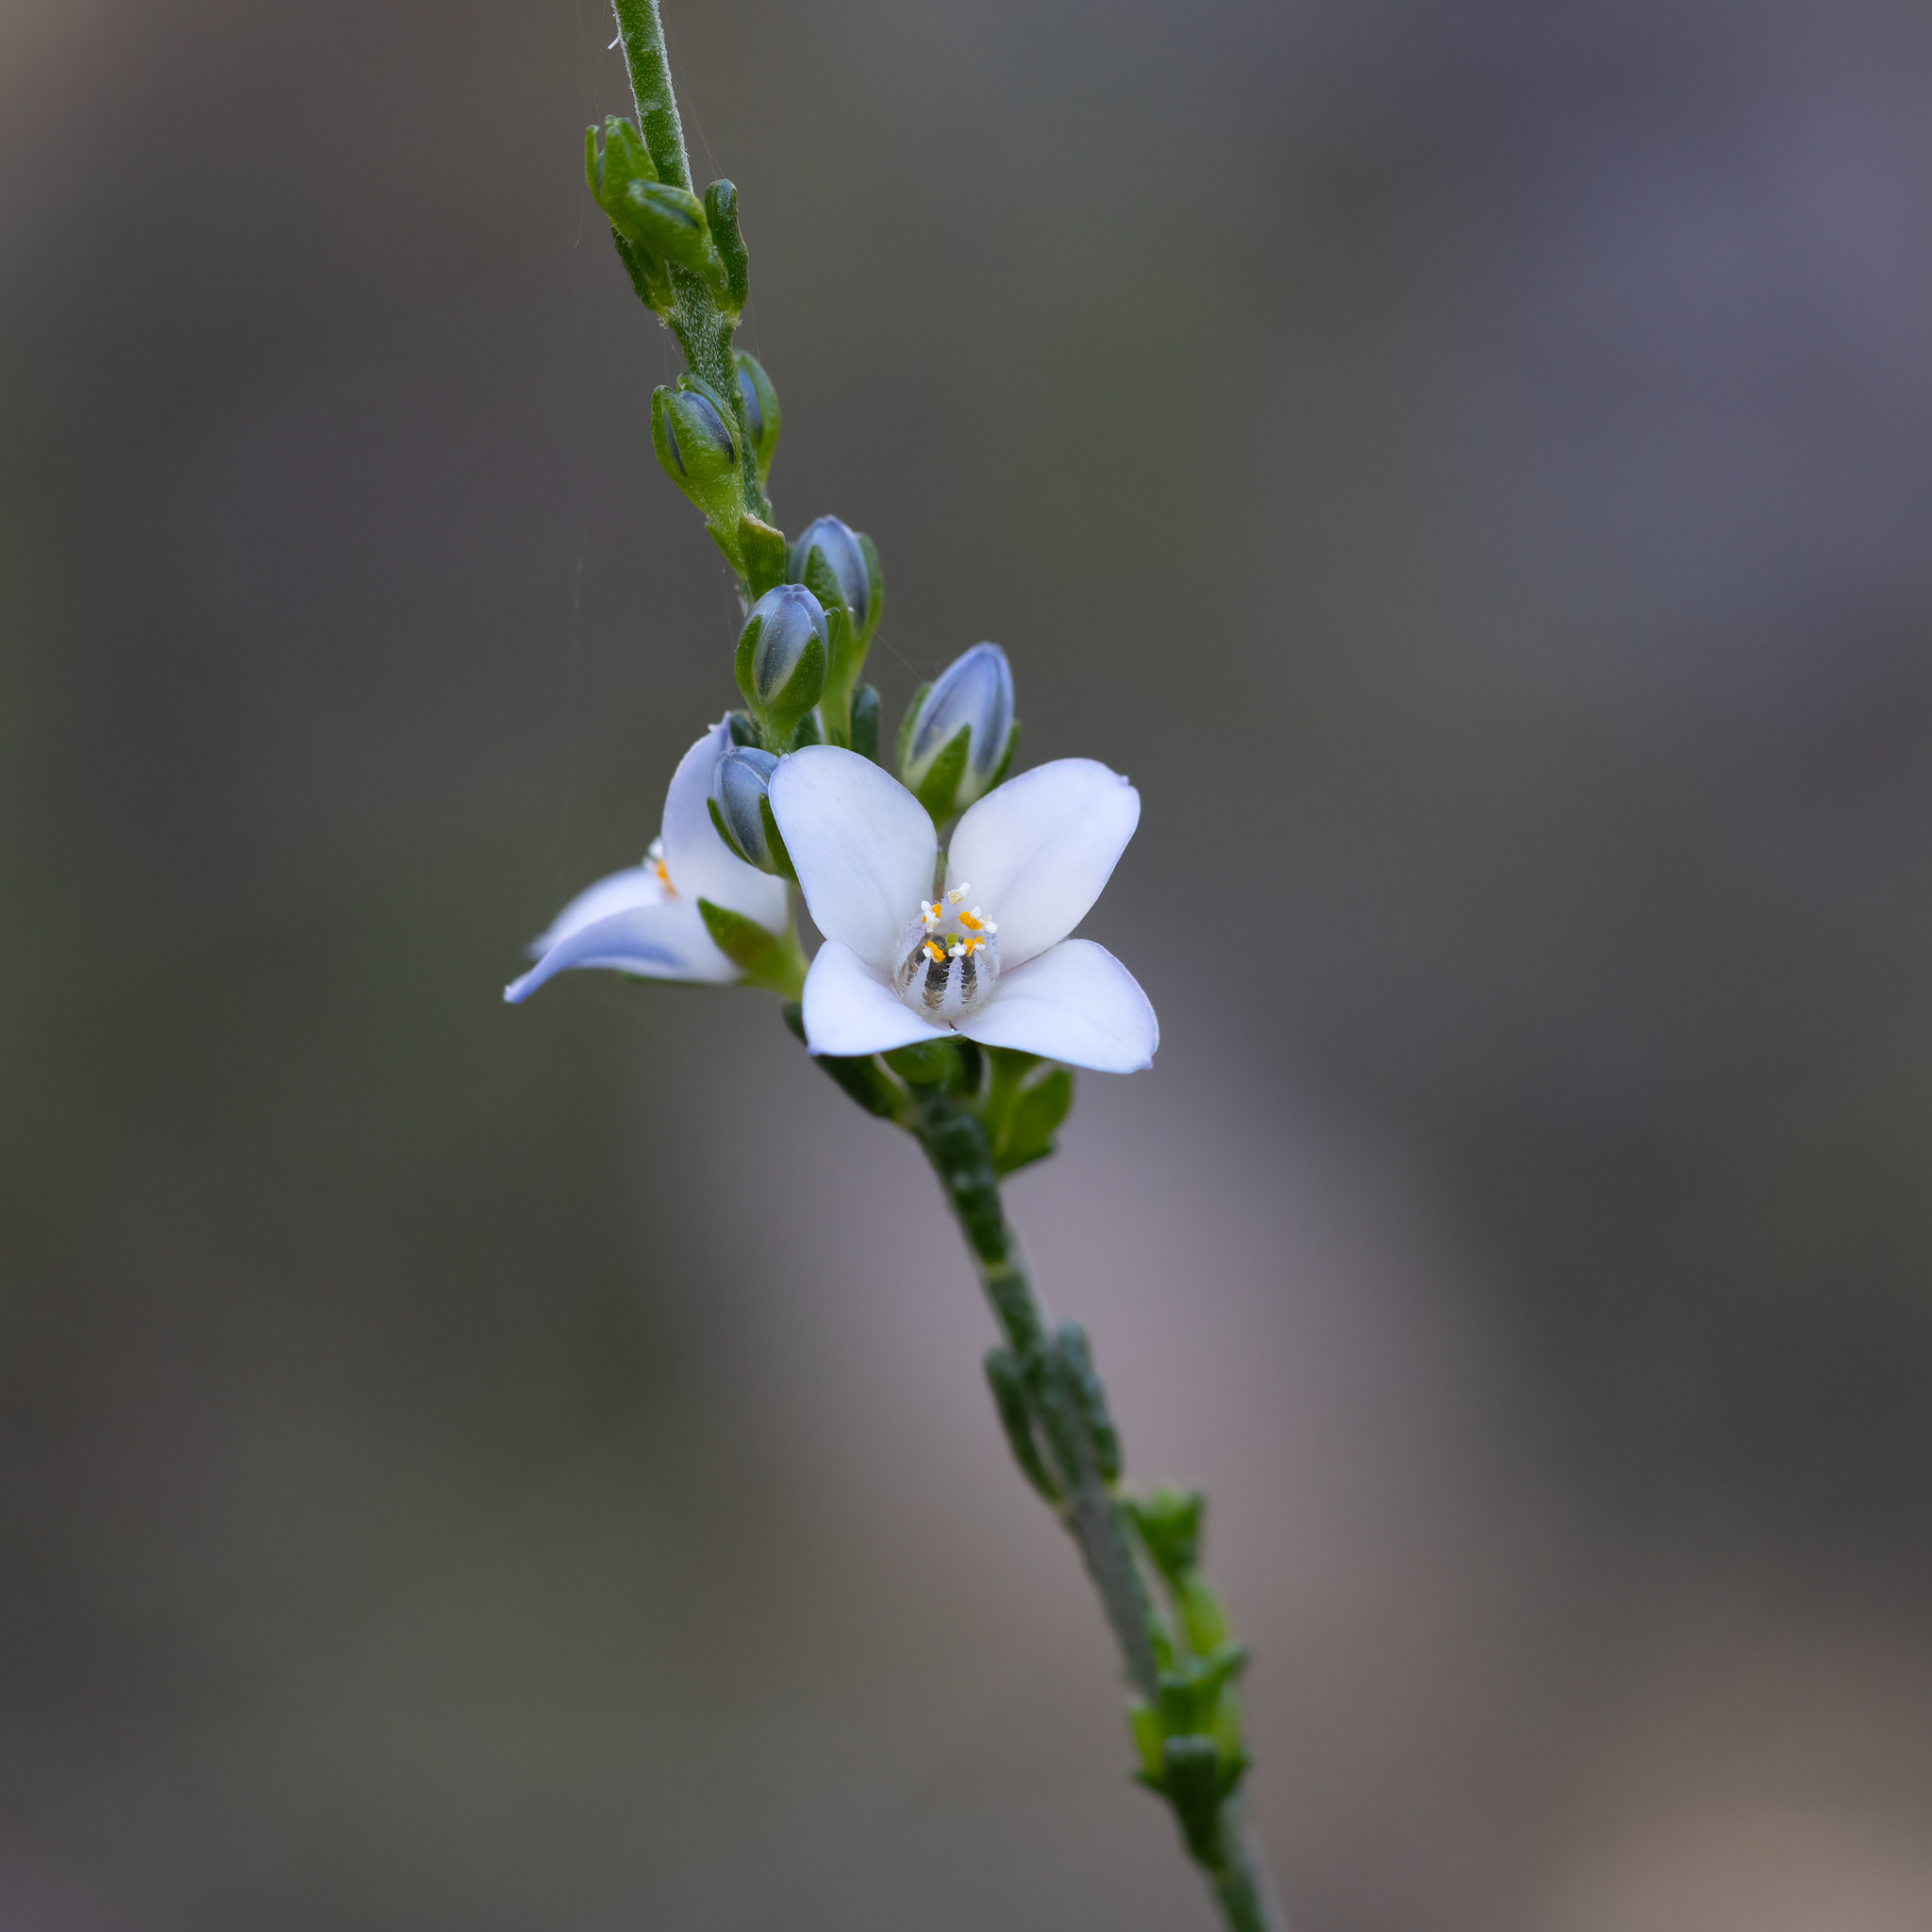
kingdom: Plantae
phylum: Tracheophyta
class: Magnoliopsida
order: Sapindales
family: Rutaceae
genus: Cyanothamnus
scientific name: Cyanothamnus coerulescens
